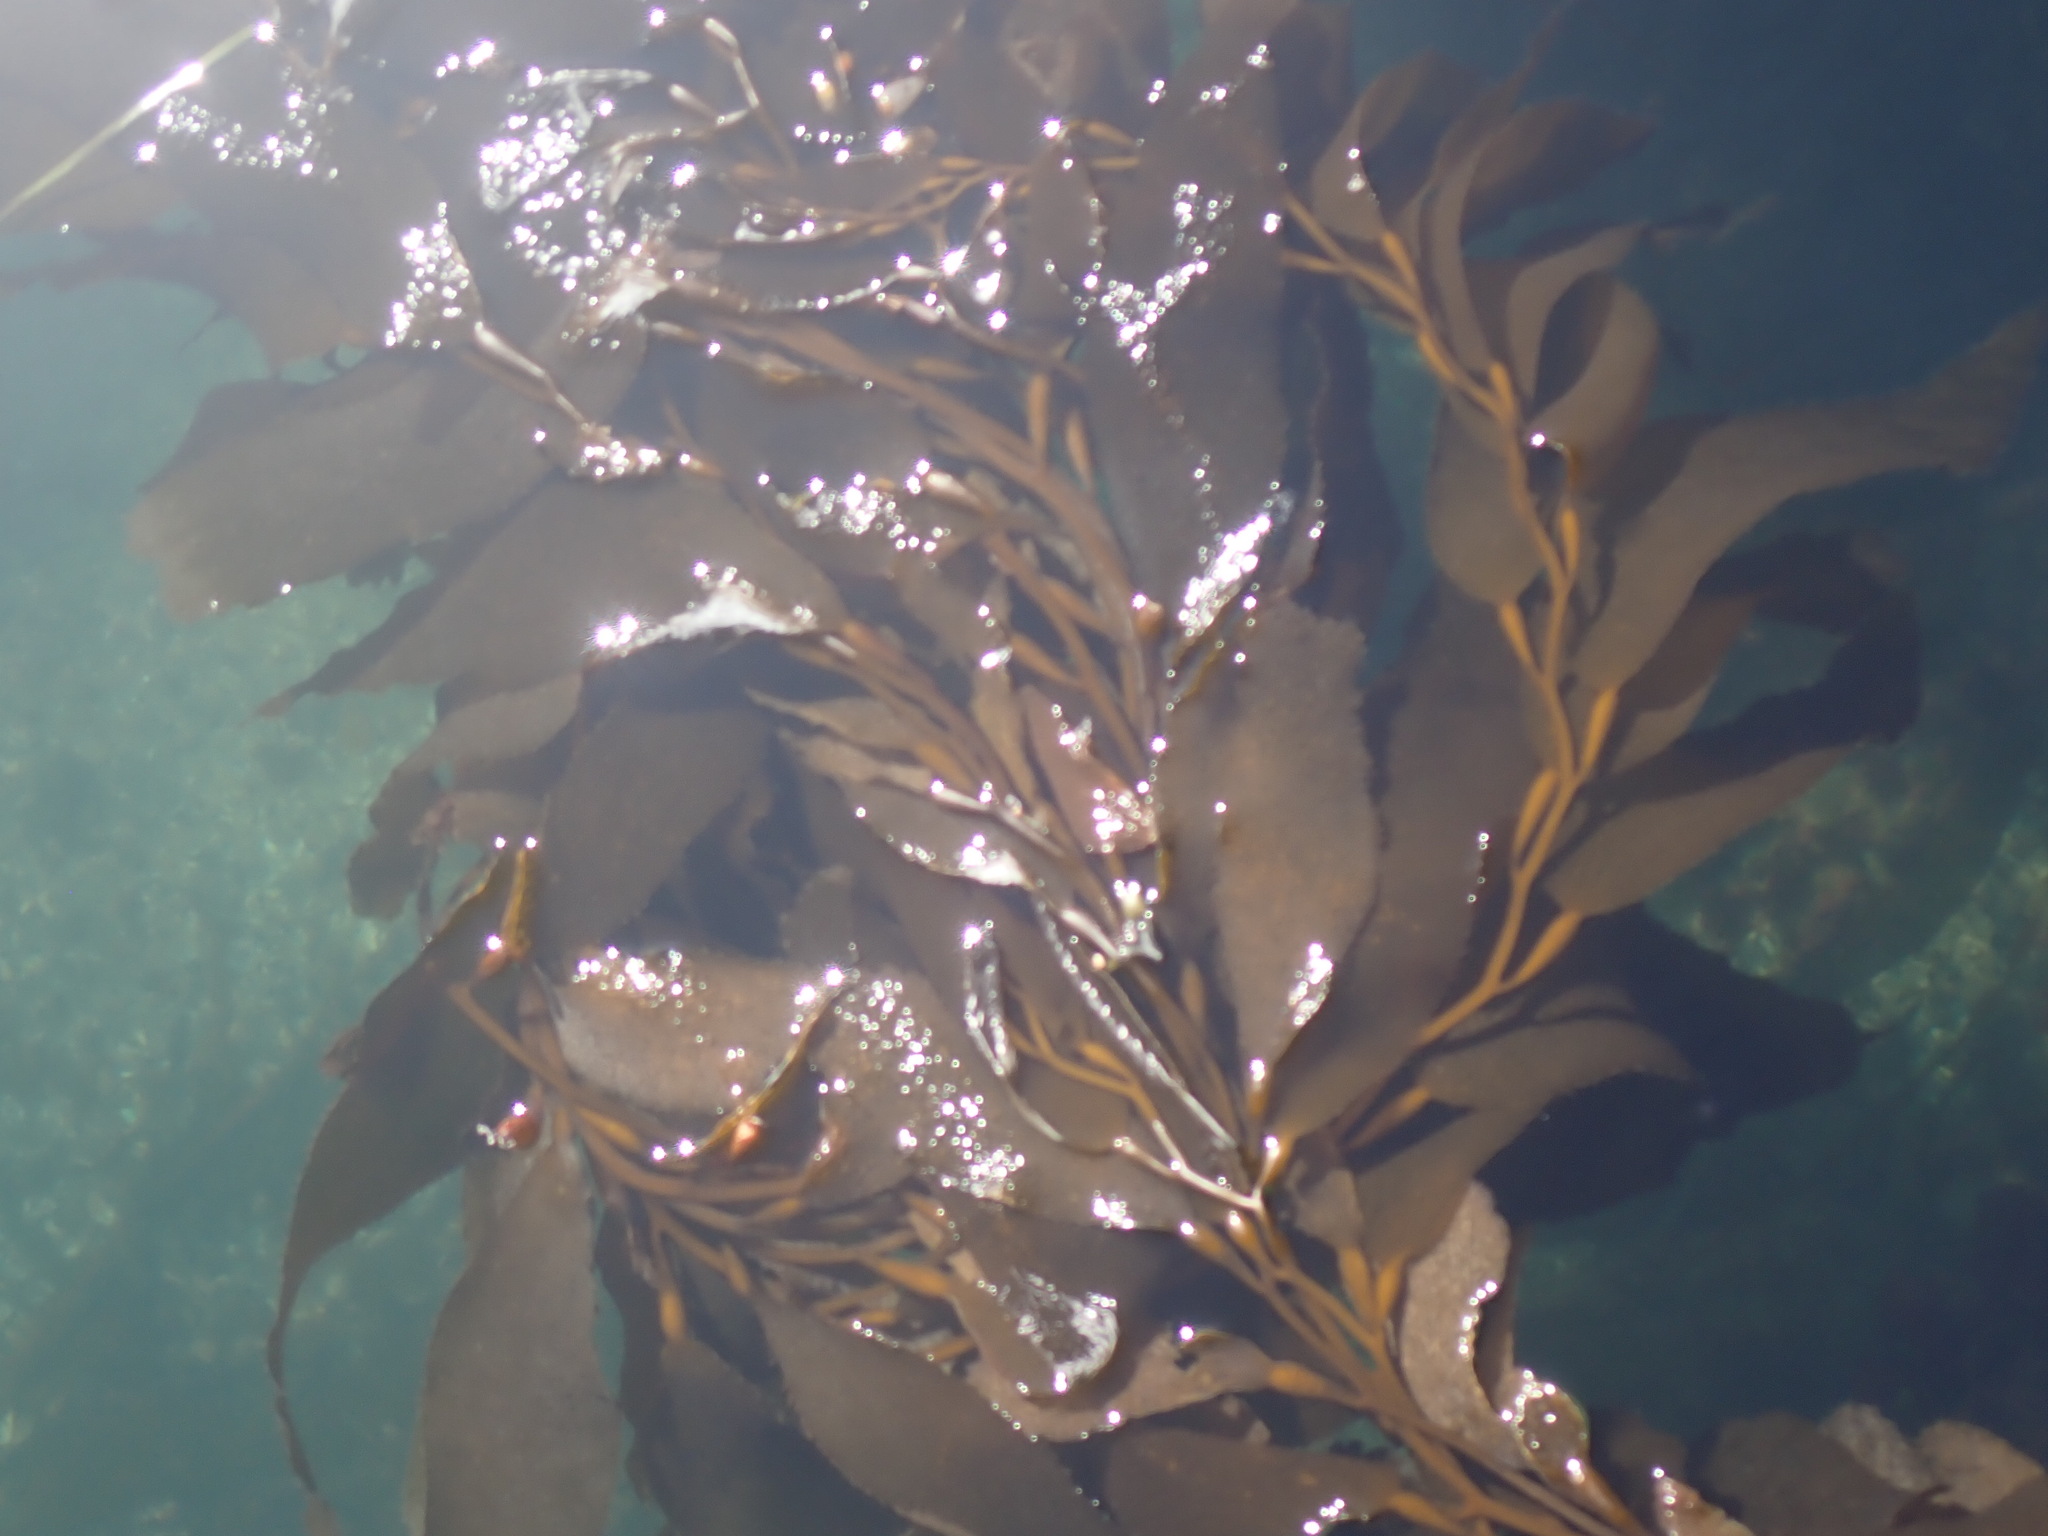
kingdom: Chromista
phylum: Ochrophyta
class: Phaeophyceae
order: Laminariales
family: Laminariaceae
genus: Macrocystis
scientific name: Macrocystis pyrifera
